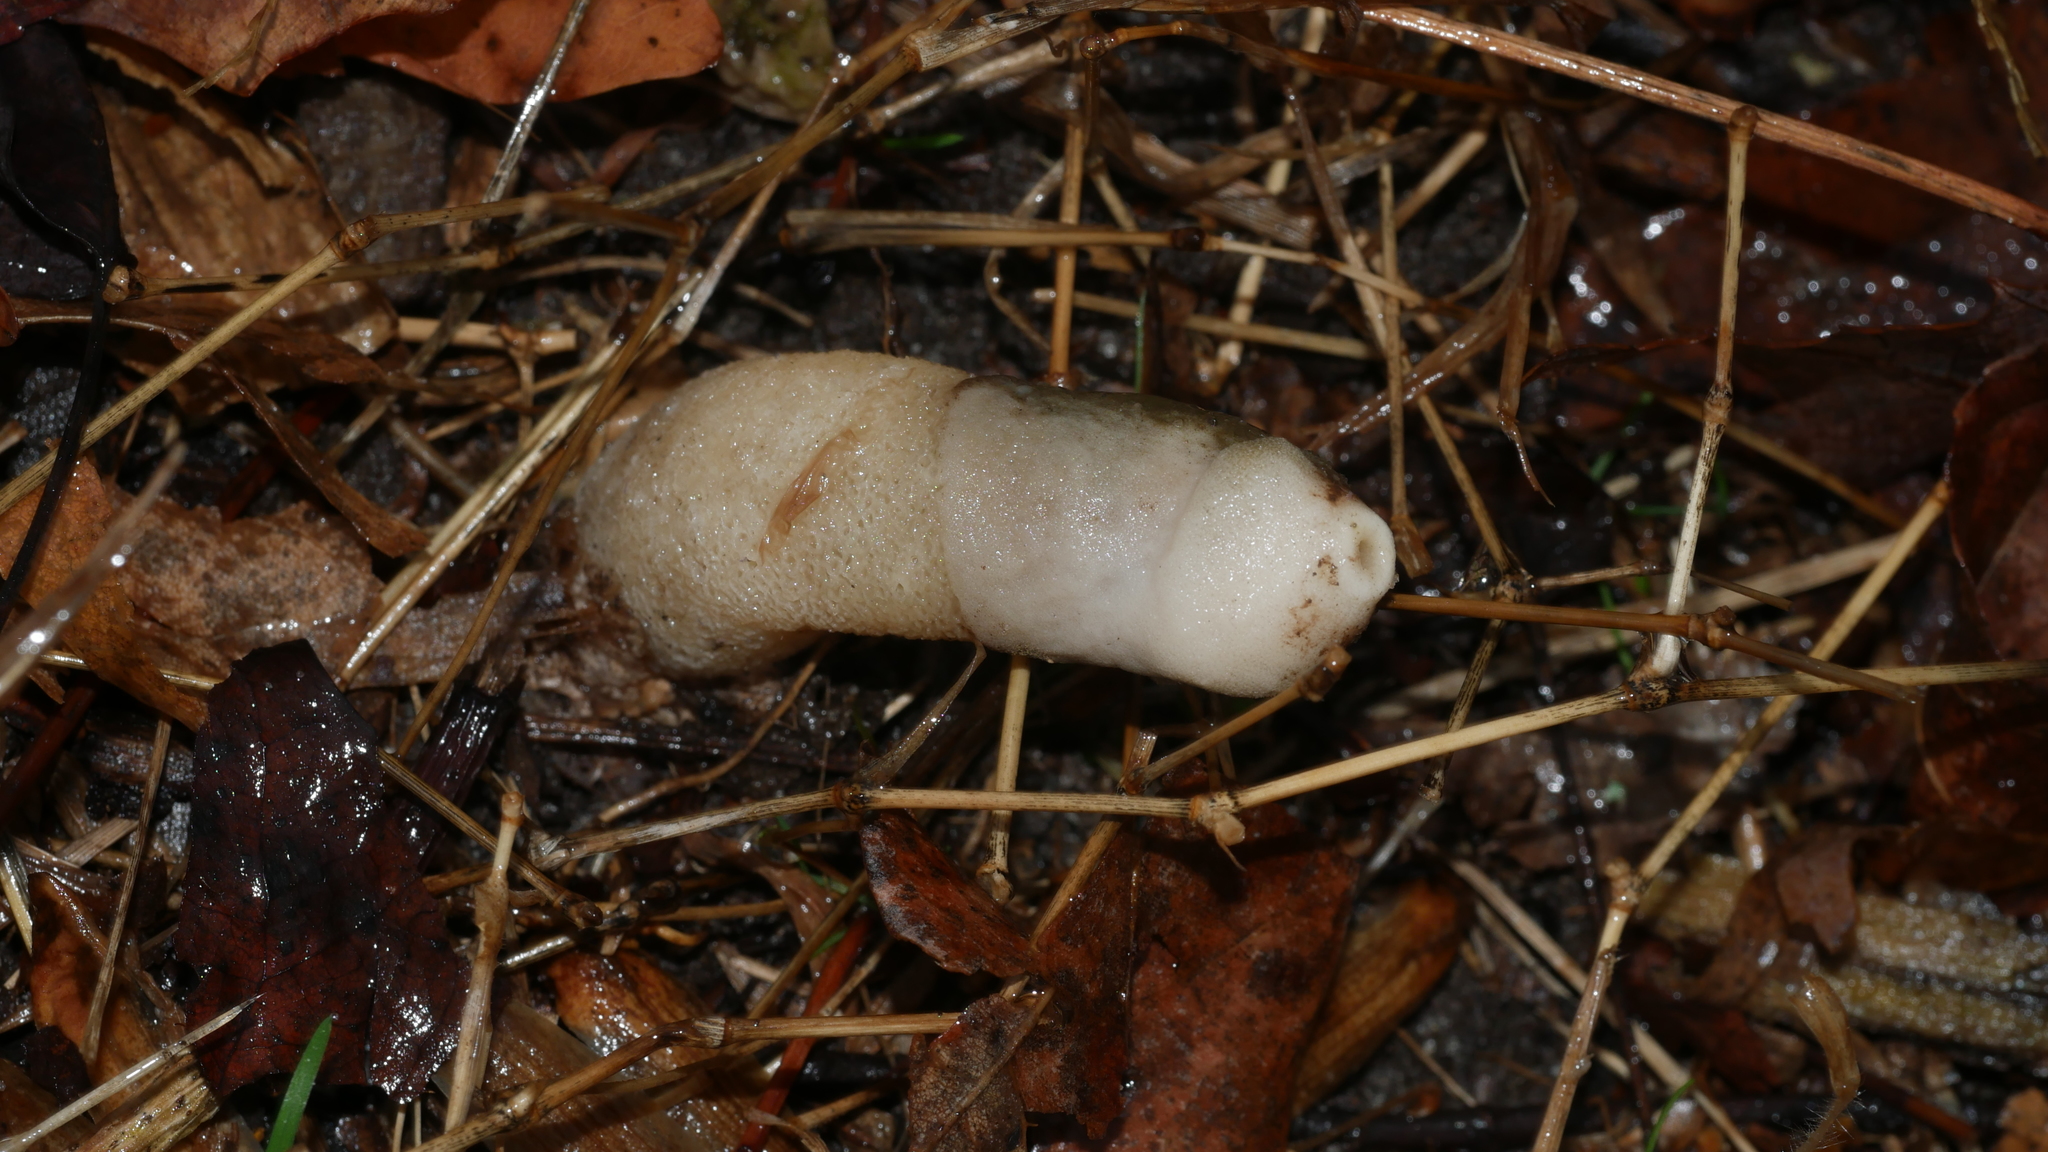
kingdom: Fungi
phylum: Basidiomycota
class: Agaricomycetes
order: Phallales
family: Phallaceae
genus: Phallus
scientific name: Phallus ravenelii
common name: Ravenel's stinkhorn
